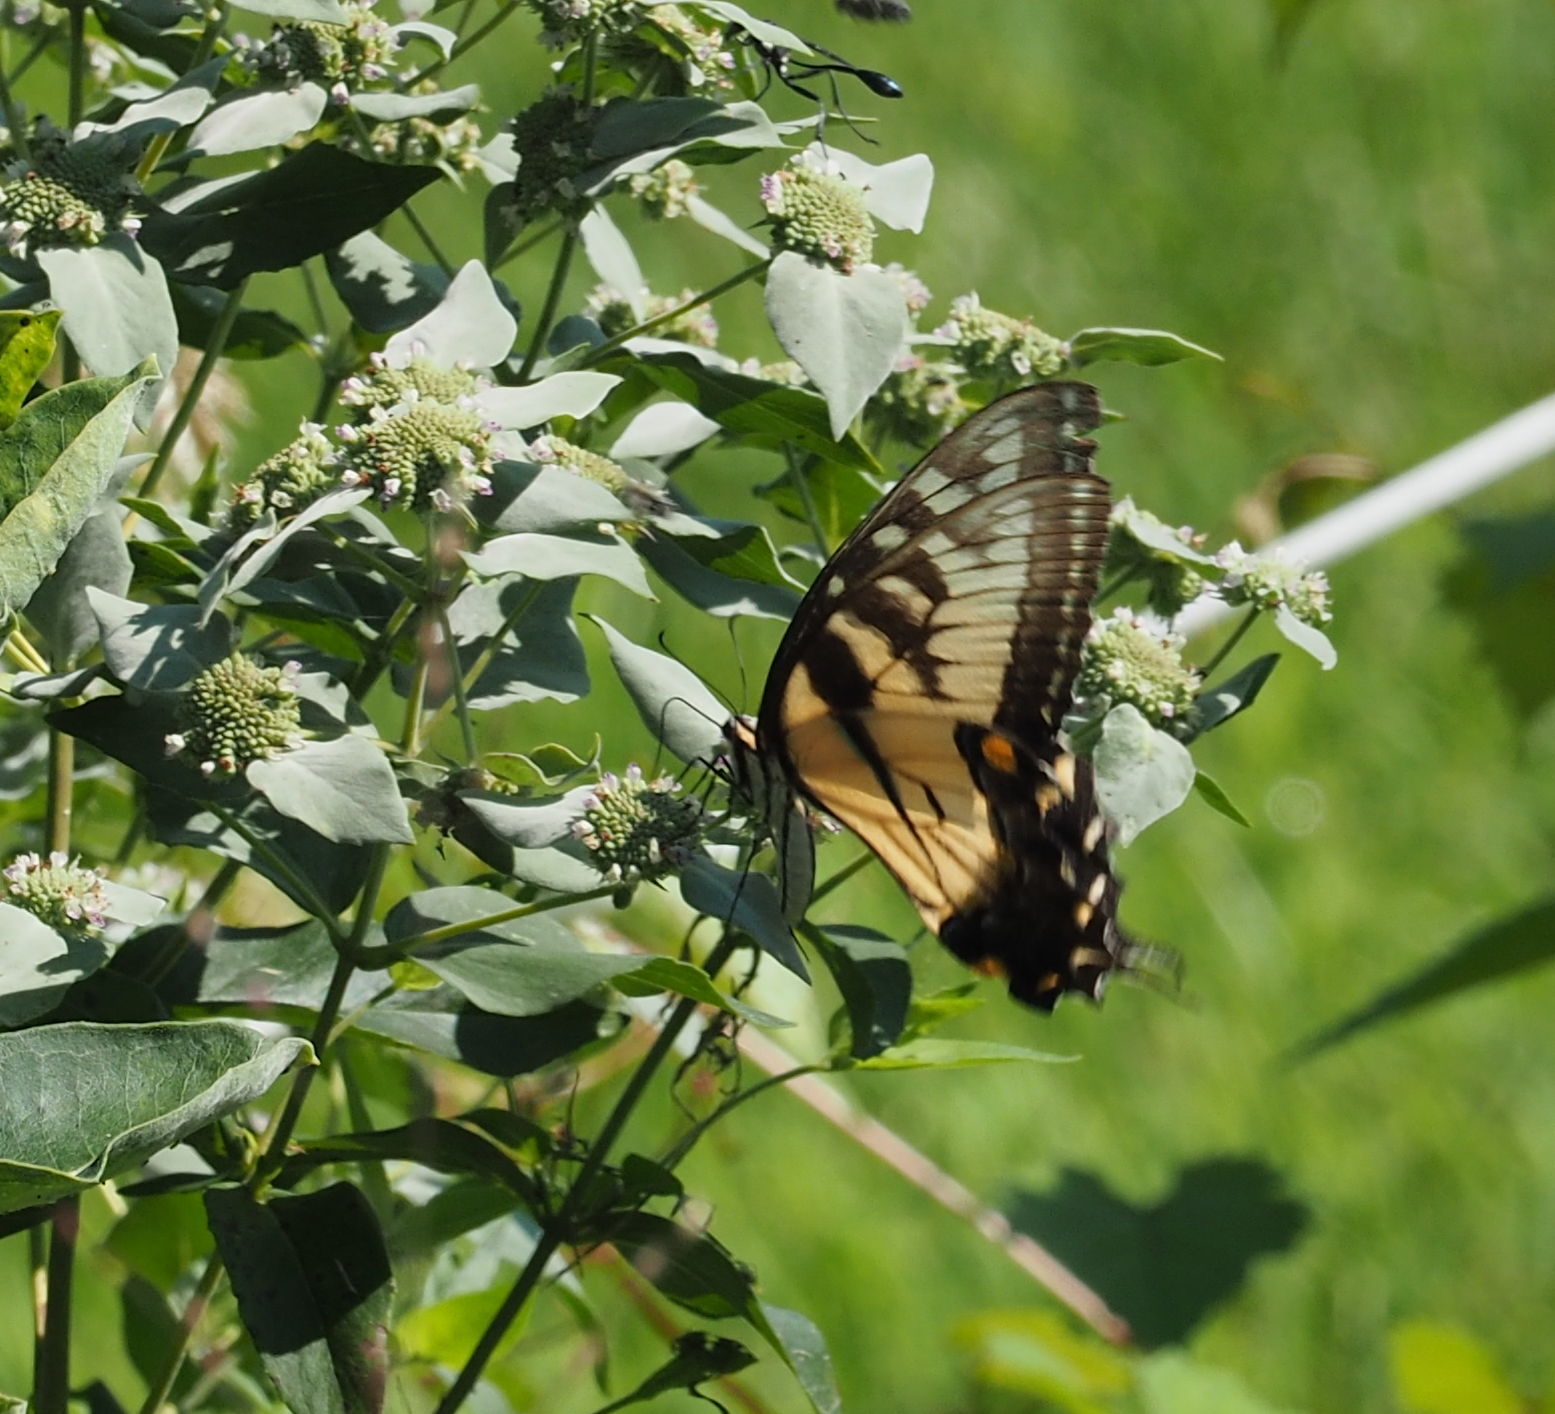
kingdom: Animalia
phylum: Arthropoda
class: Insecta
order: Lepidoptera
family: Papilionidae
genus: Papilio
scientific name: Papilio glaucus
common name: Tiger swallowtail
